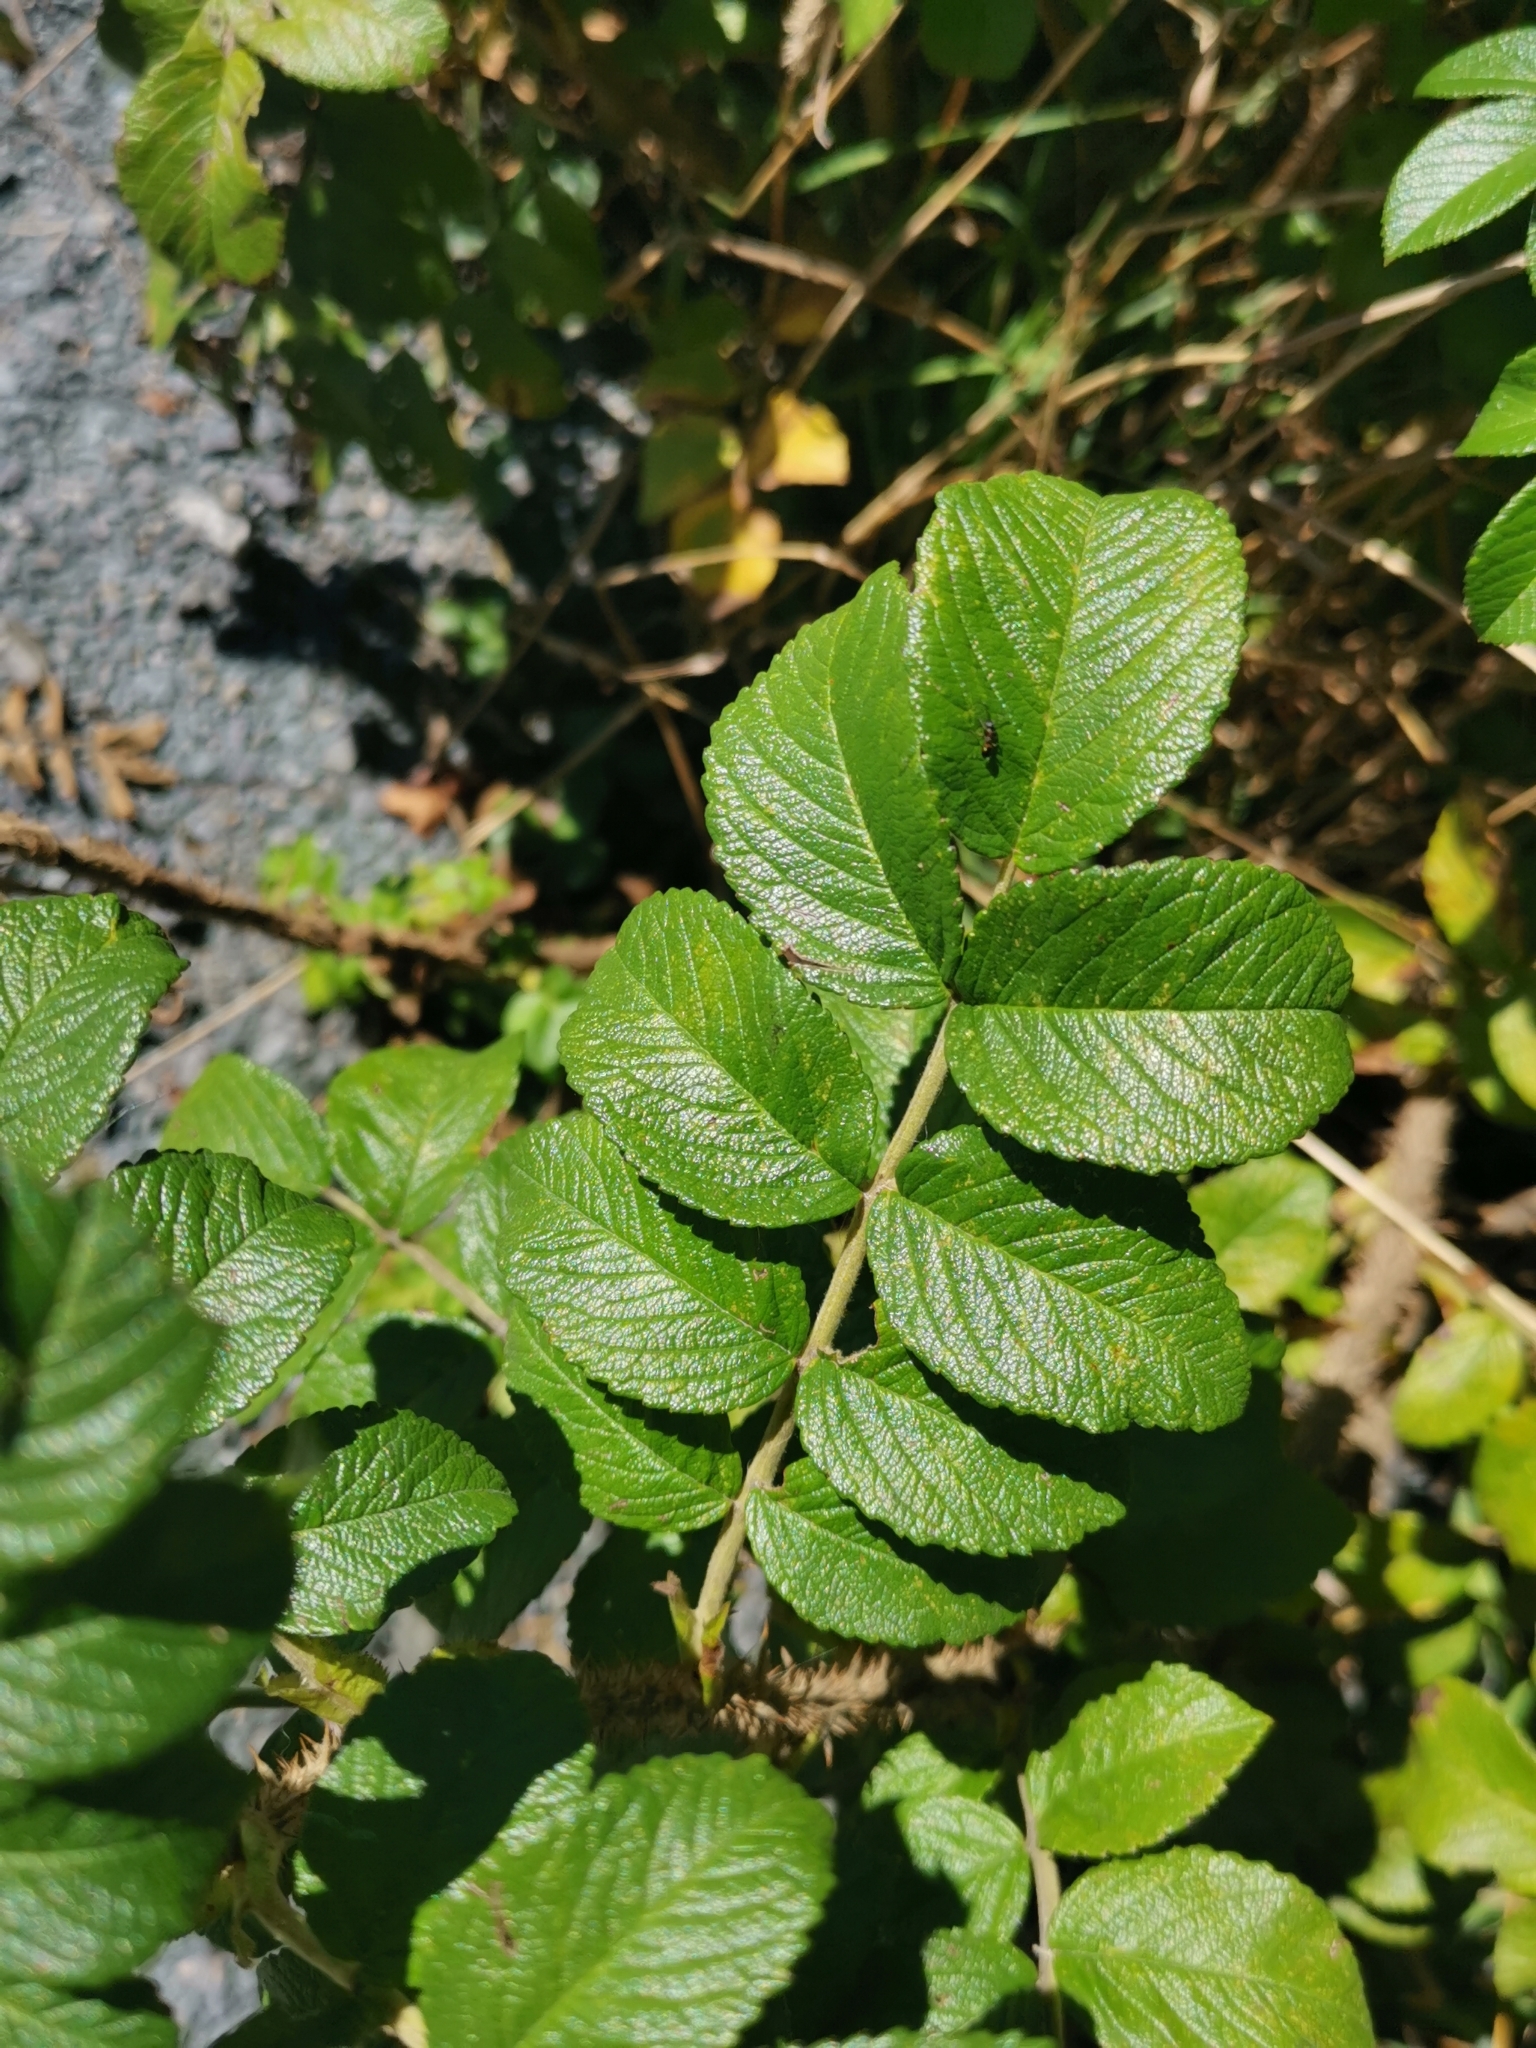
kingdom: Plantae
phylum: Tracheophyta
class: Magnoliopsida
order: Rosales
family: Rosaceae
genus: Rosa
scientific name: Rosa rugosa
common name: Japanese rose
